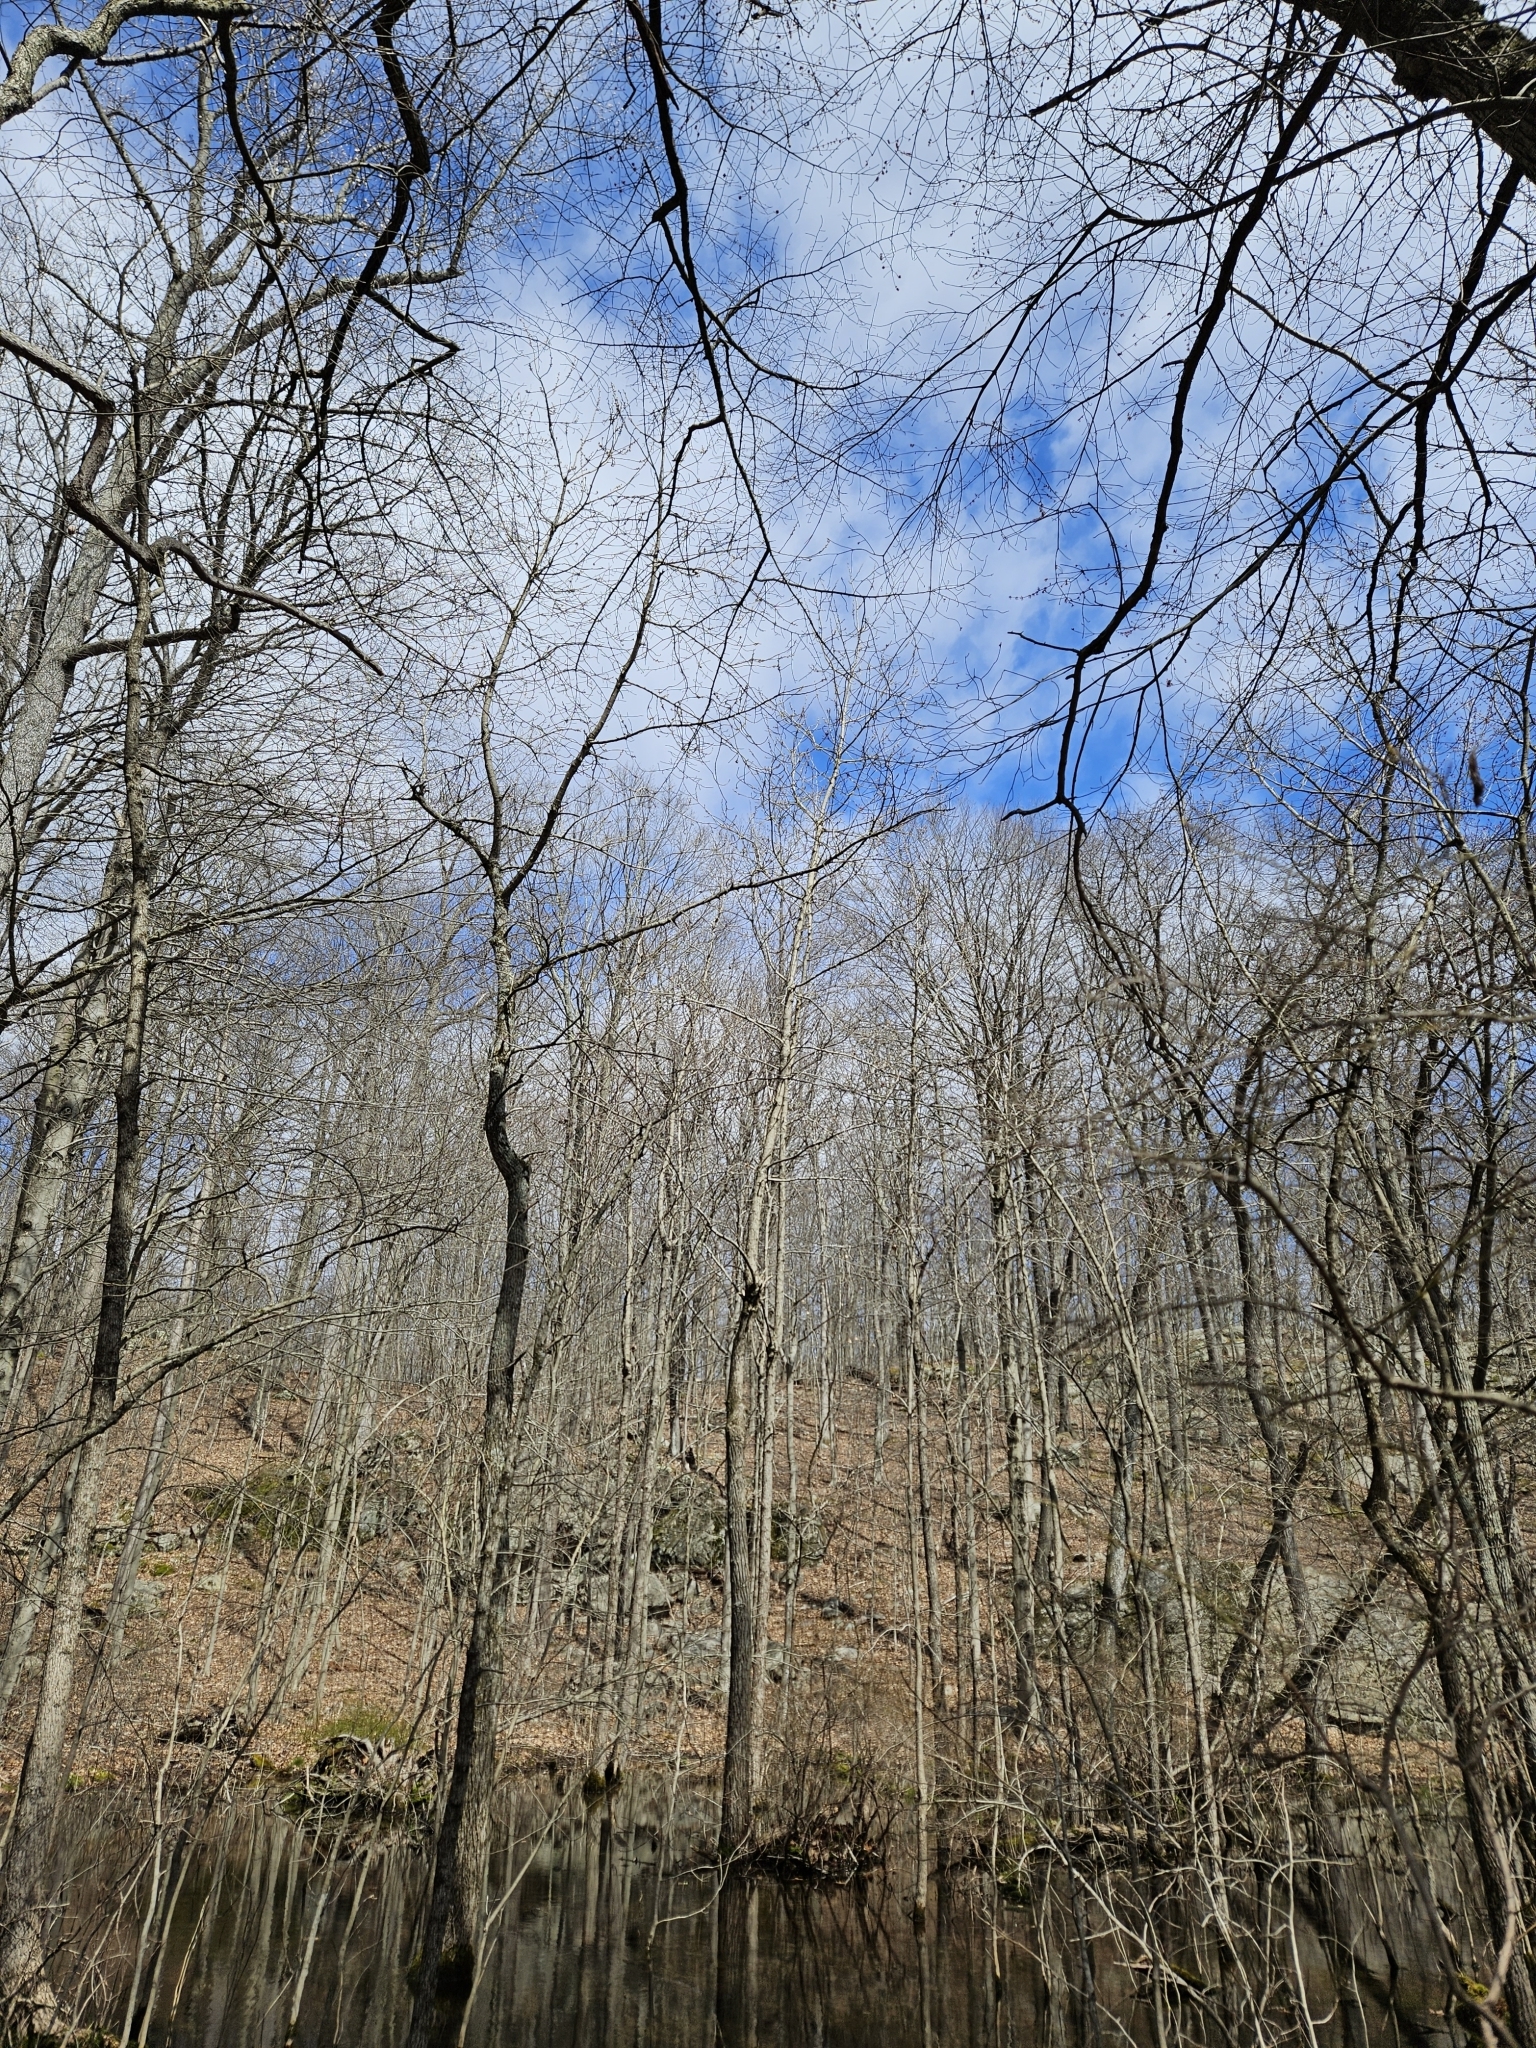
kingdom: Plantae
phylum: Tracheophyta
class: Magnoliopsida
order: Malpighiales
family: Salicaceae
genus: Populus
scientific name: Populus heterophylla
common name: Downy poplar
